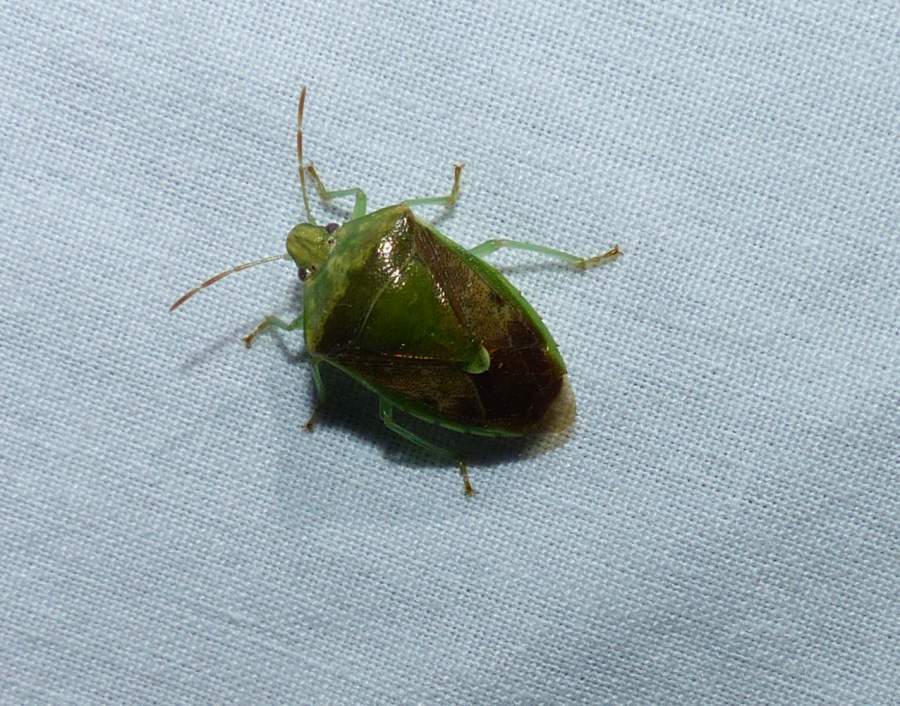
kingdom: Animalia
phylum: Arthropoda
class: Insecta
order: Hemiptera
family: Pentatomidae
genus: Banasa
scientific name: Banasa dimidiata
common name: Green burgundy stink bug
